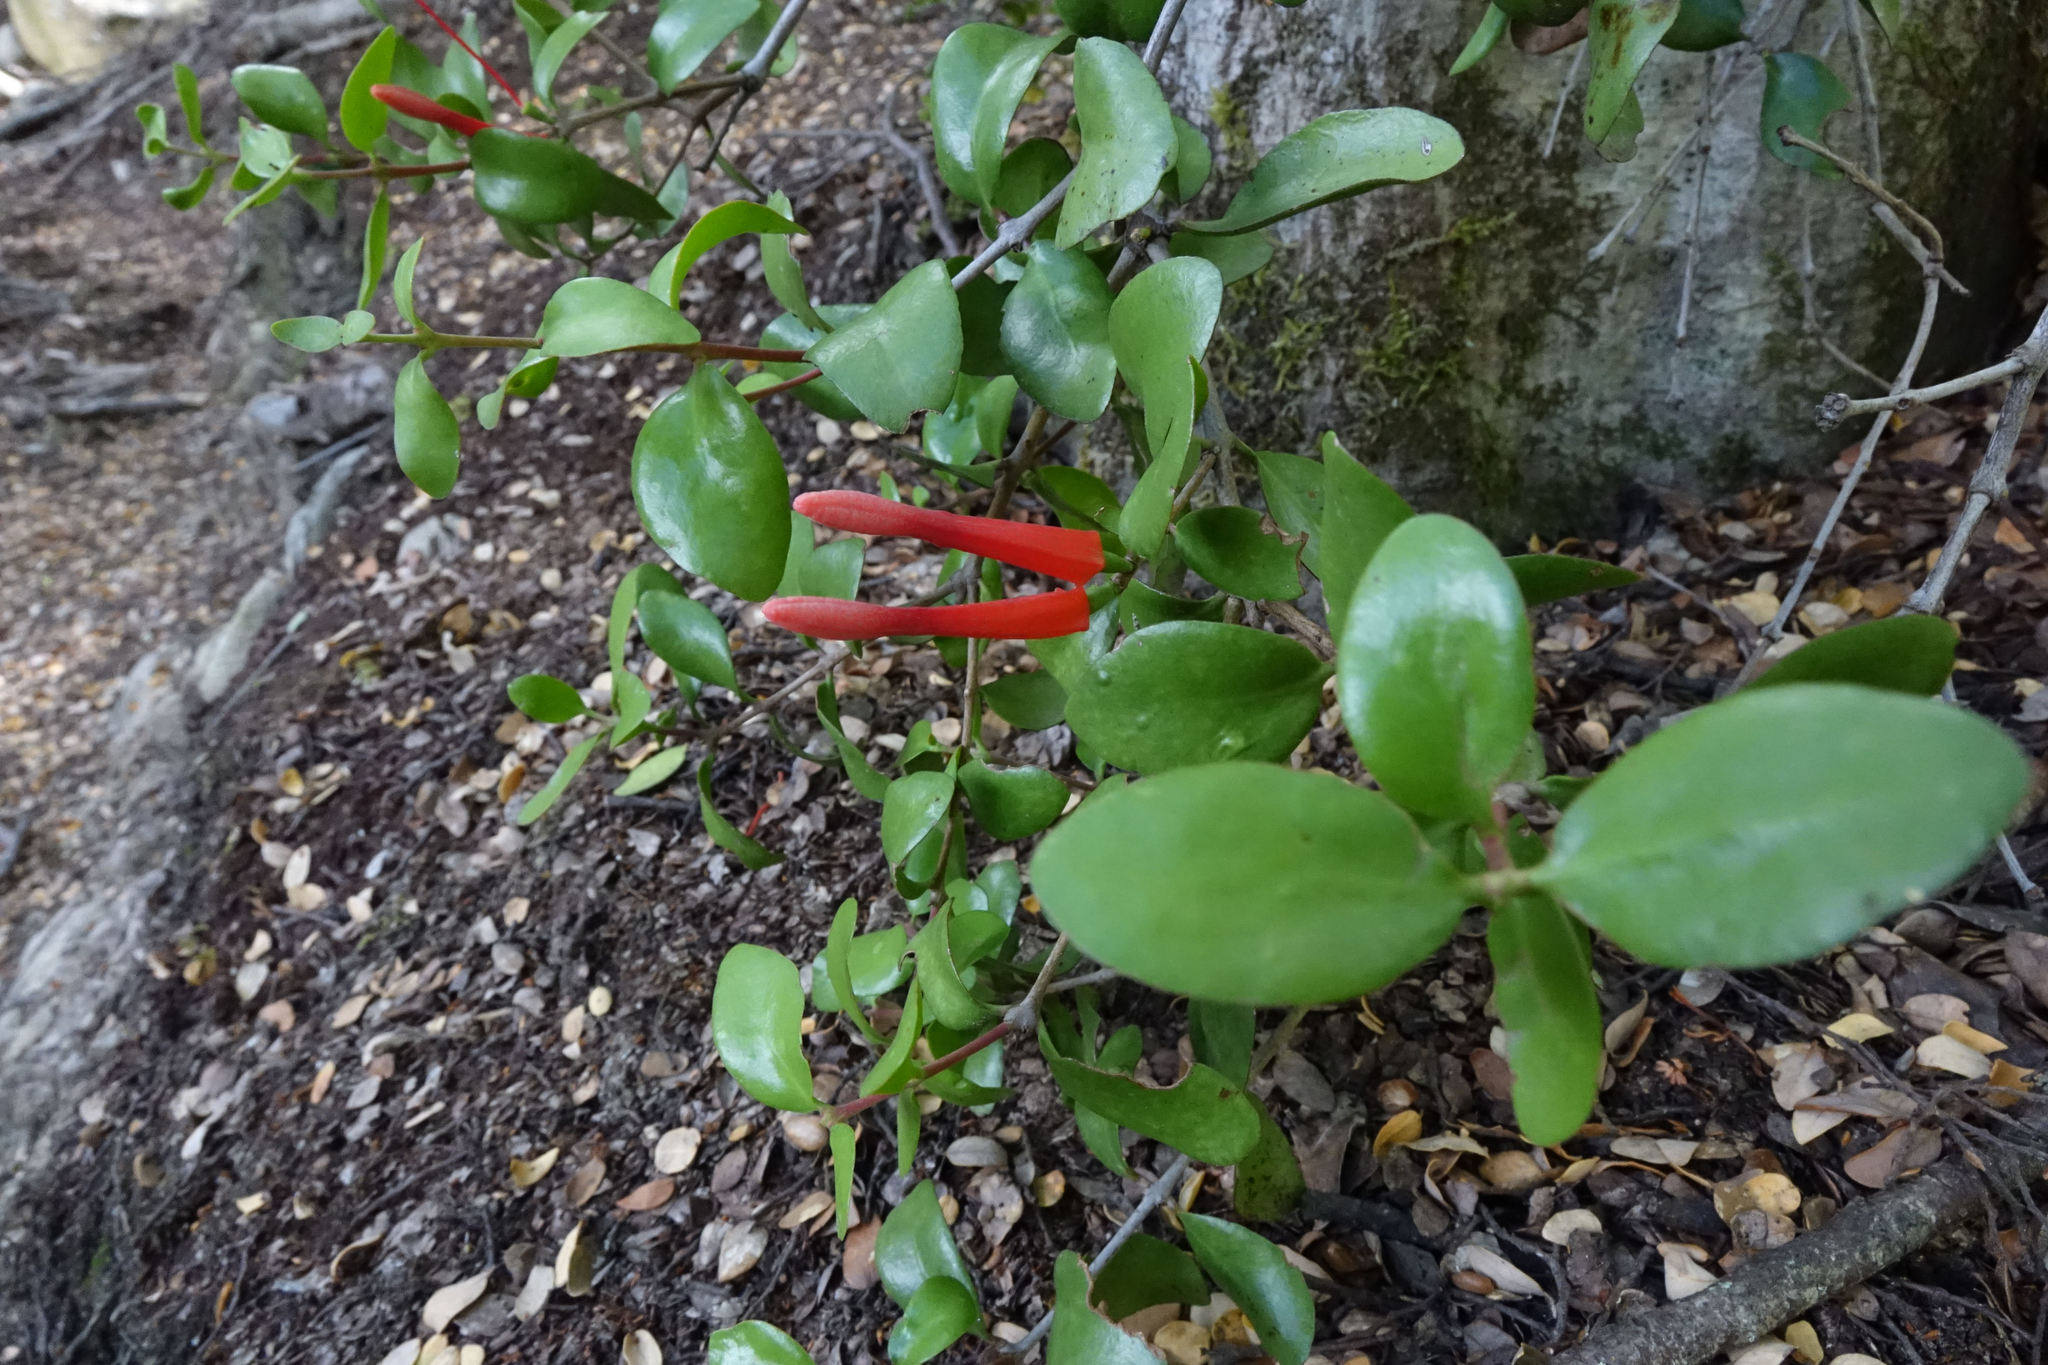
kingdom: Plantae
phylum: Tracheophyta
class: Magnoliopsida
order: Santalales
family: Loranthaceae
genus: Peraxilla
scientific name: Peraxilla tetrapetala
